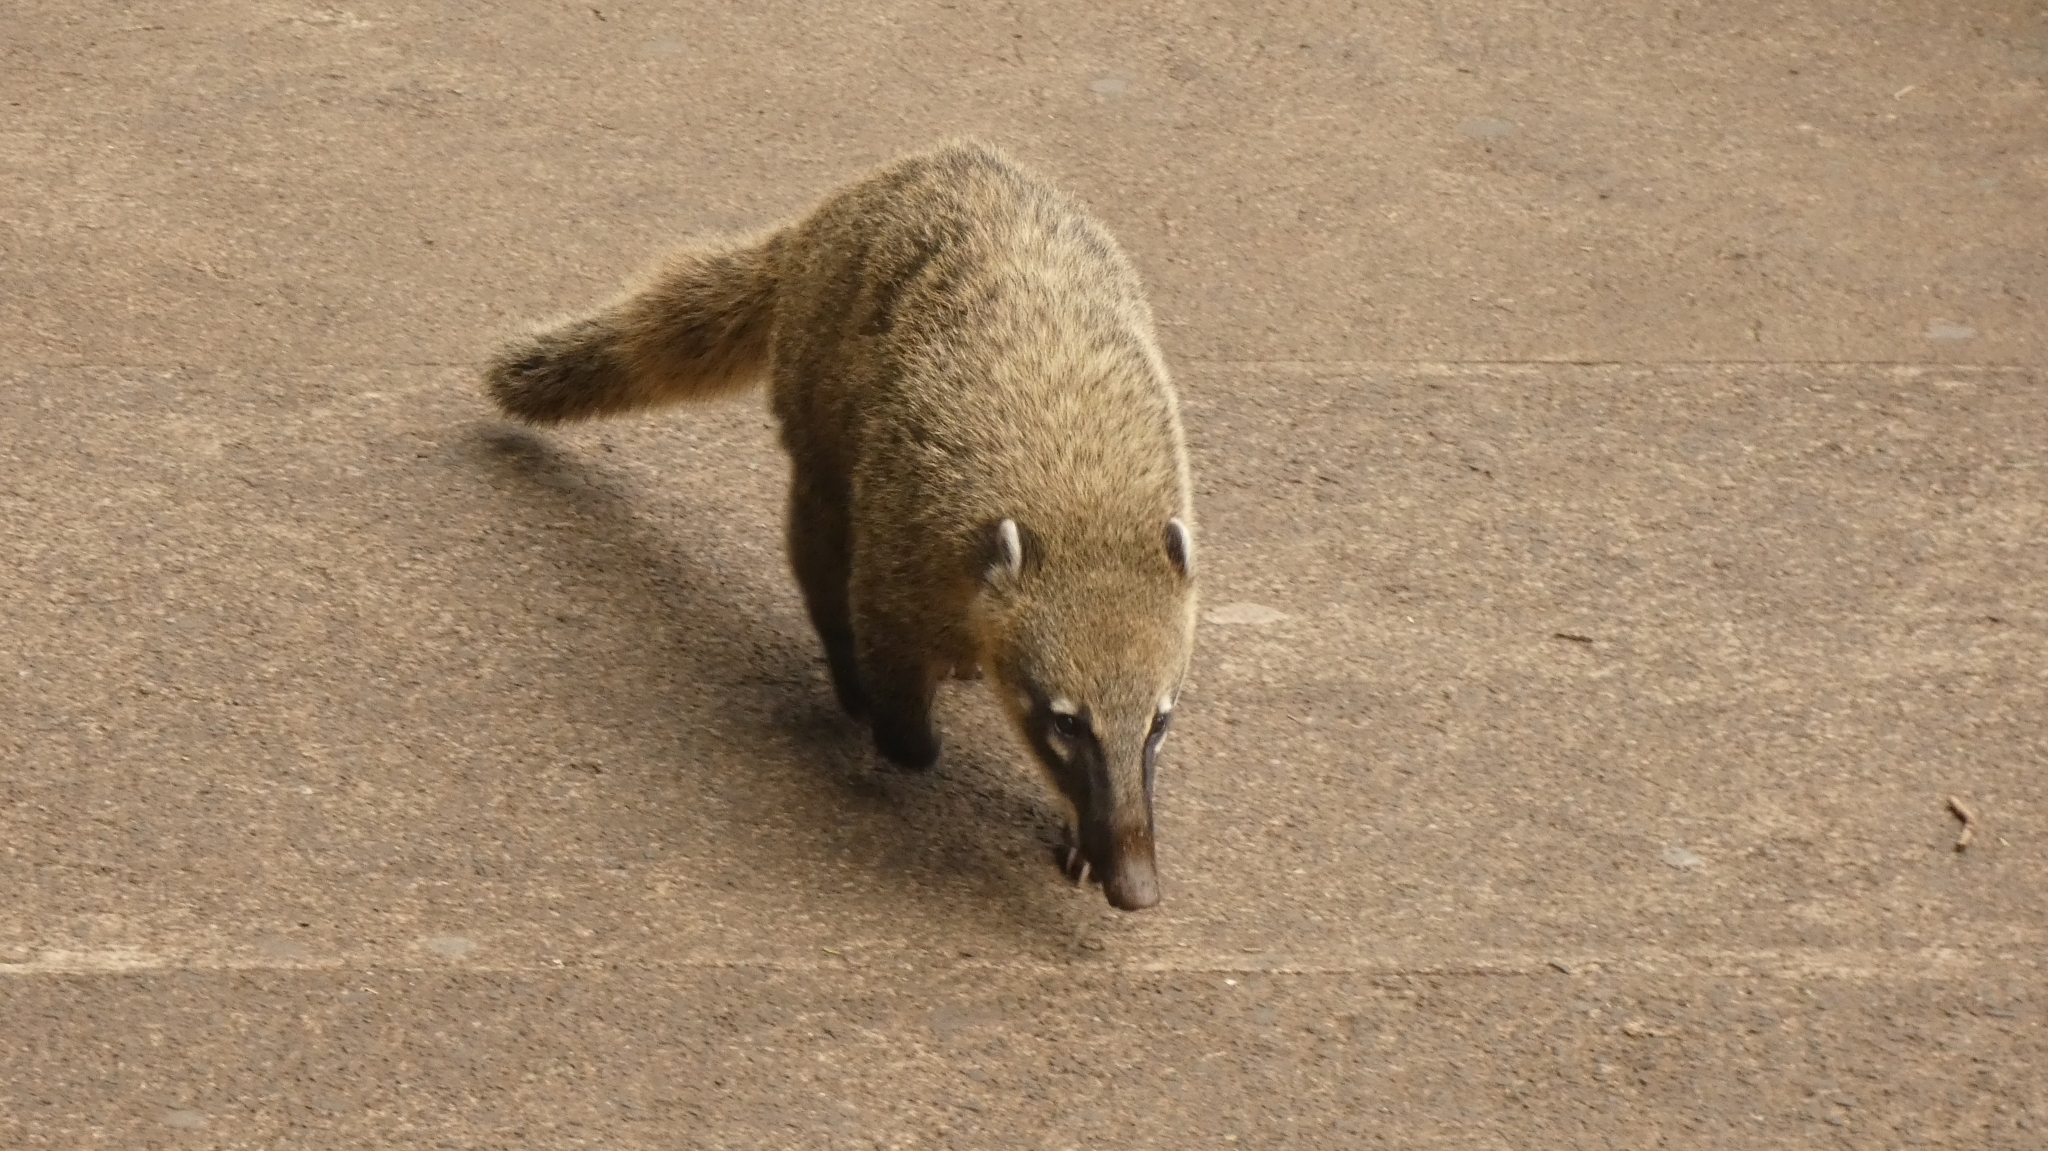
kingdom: Animalia
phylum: Chordata
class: Mammalia
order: Carnivora
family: Procyonidae
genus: Nasua
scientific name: Nasua nasua
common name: South american coati
